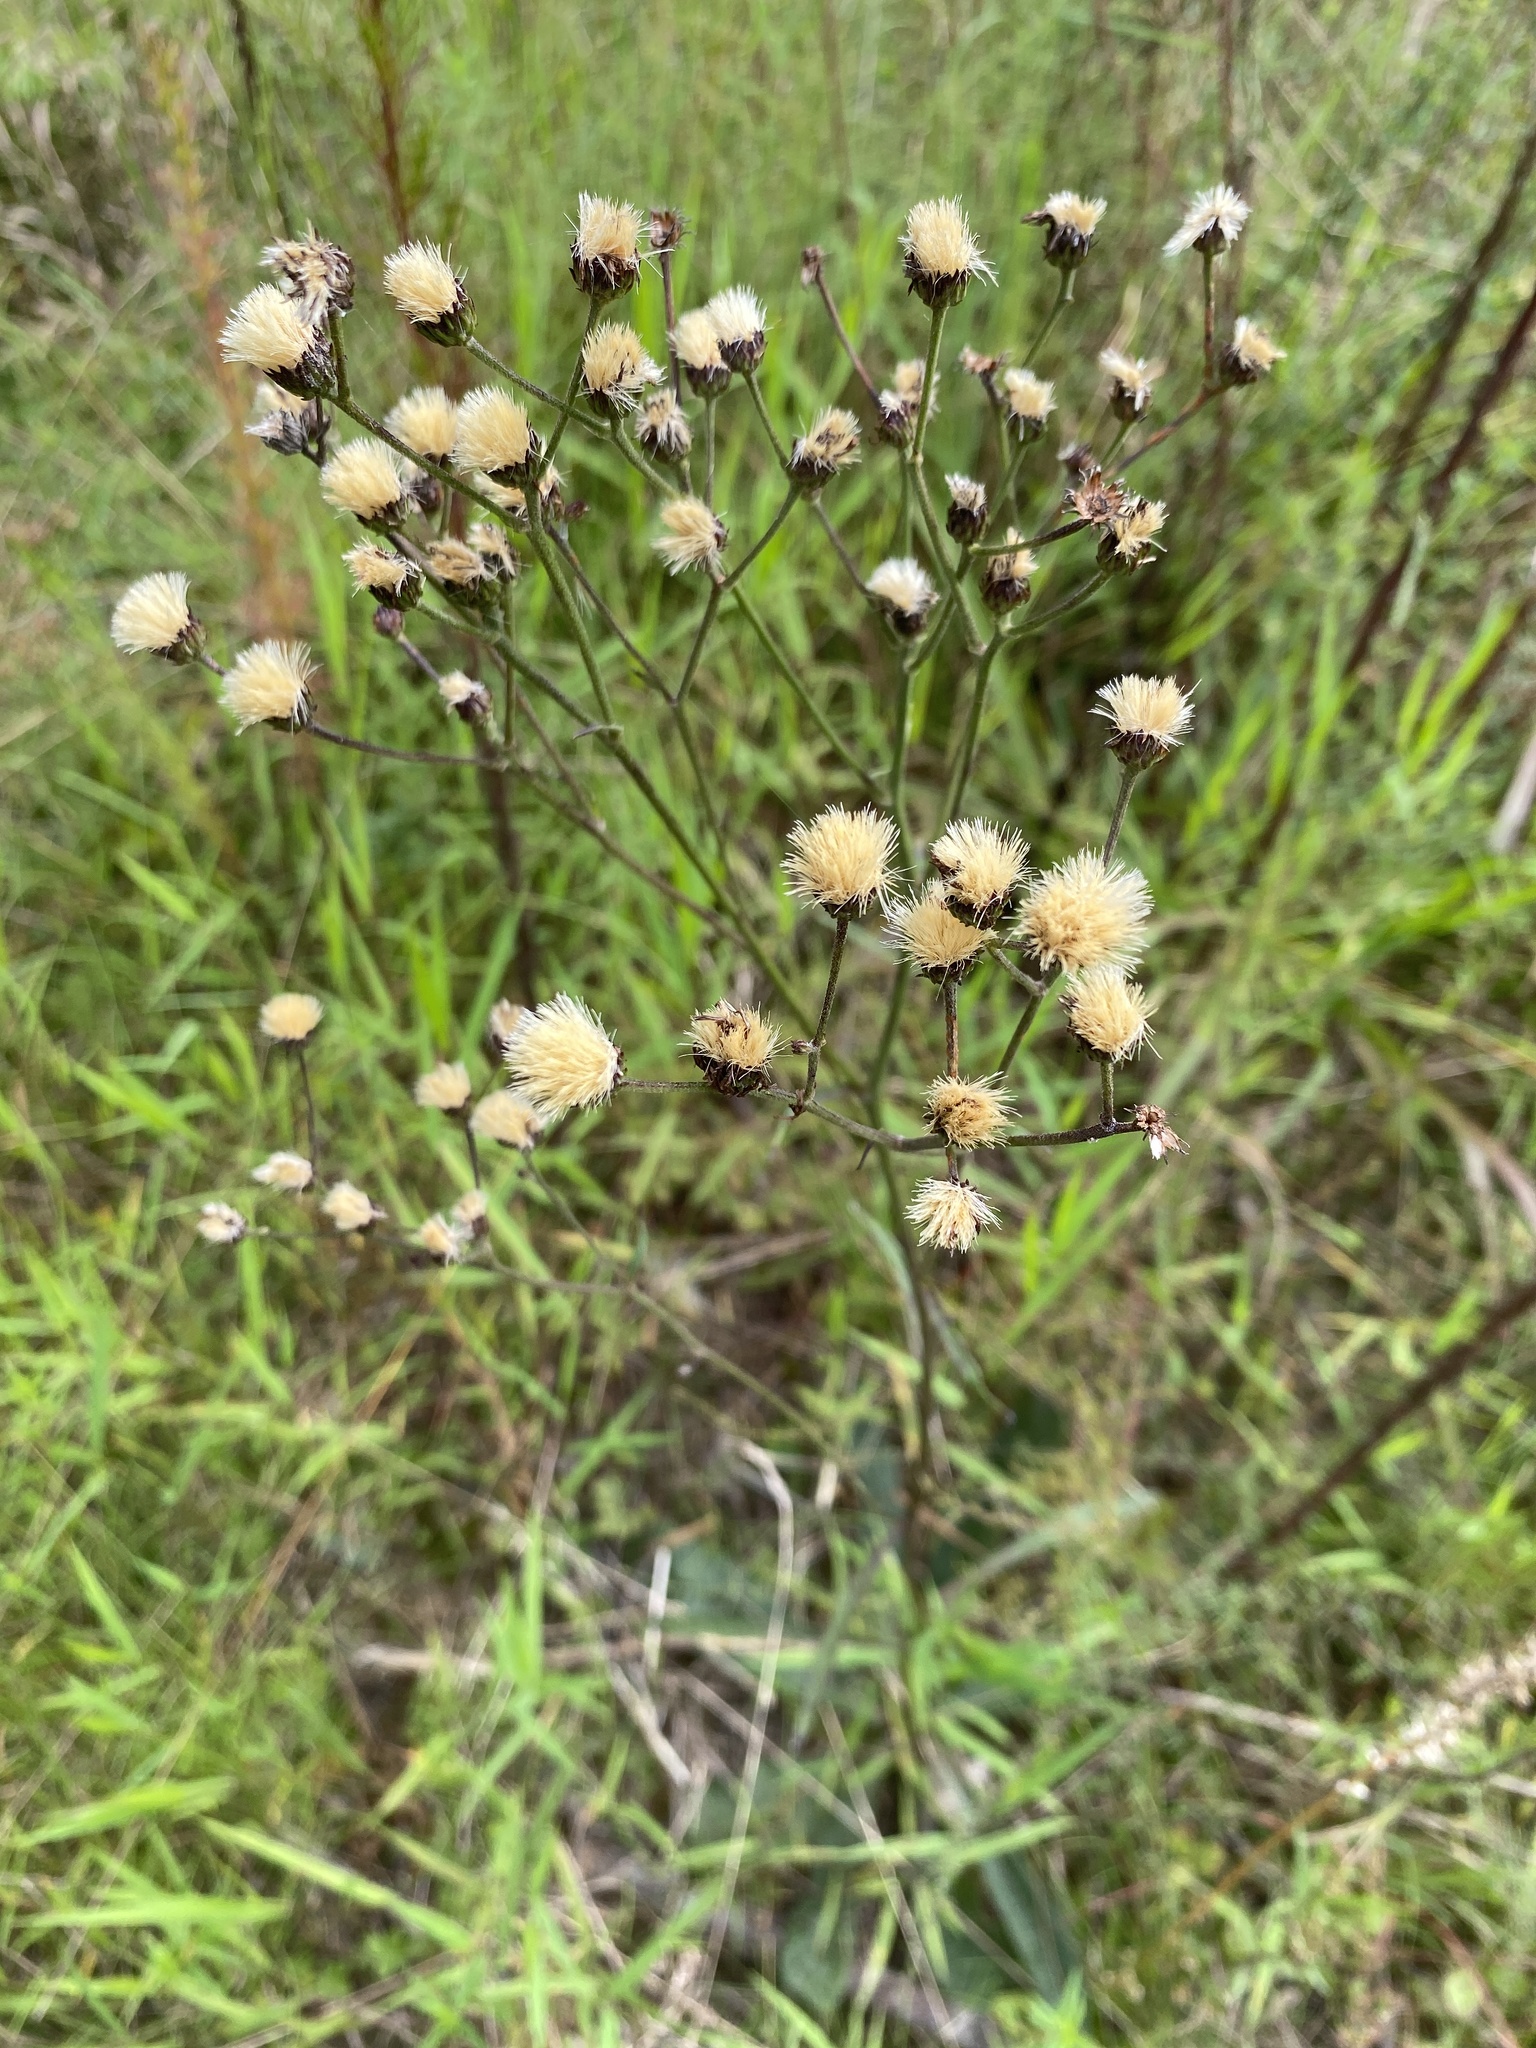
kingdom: Plantae
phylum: Tracheophyta
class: Magnoliopsida
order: Asterales
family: Asteraceae
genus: Vernonia
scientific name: Vernonia acaulis
